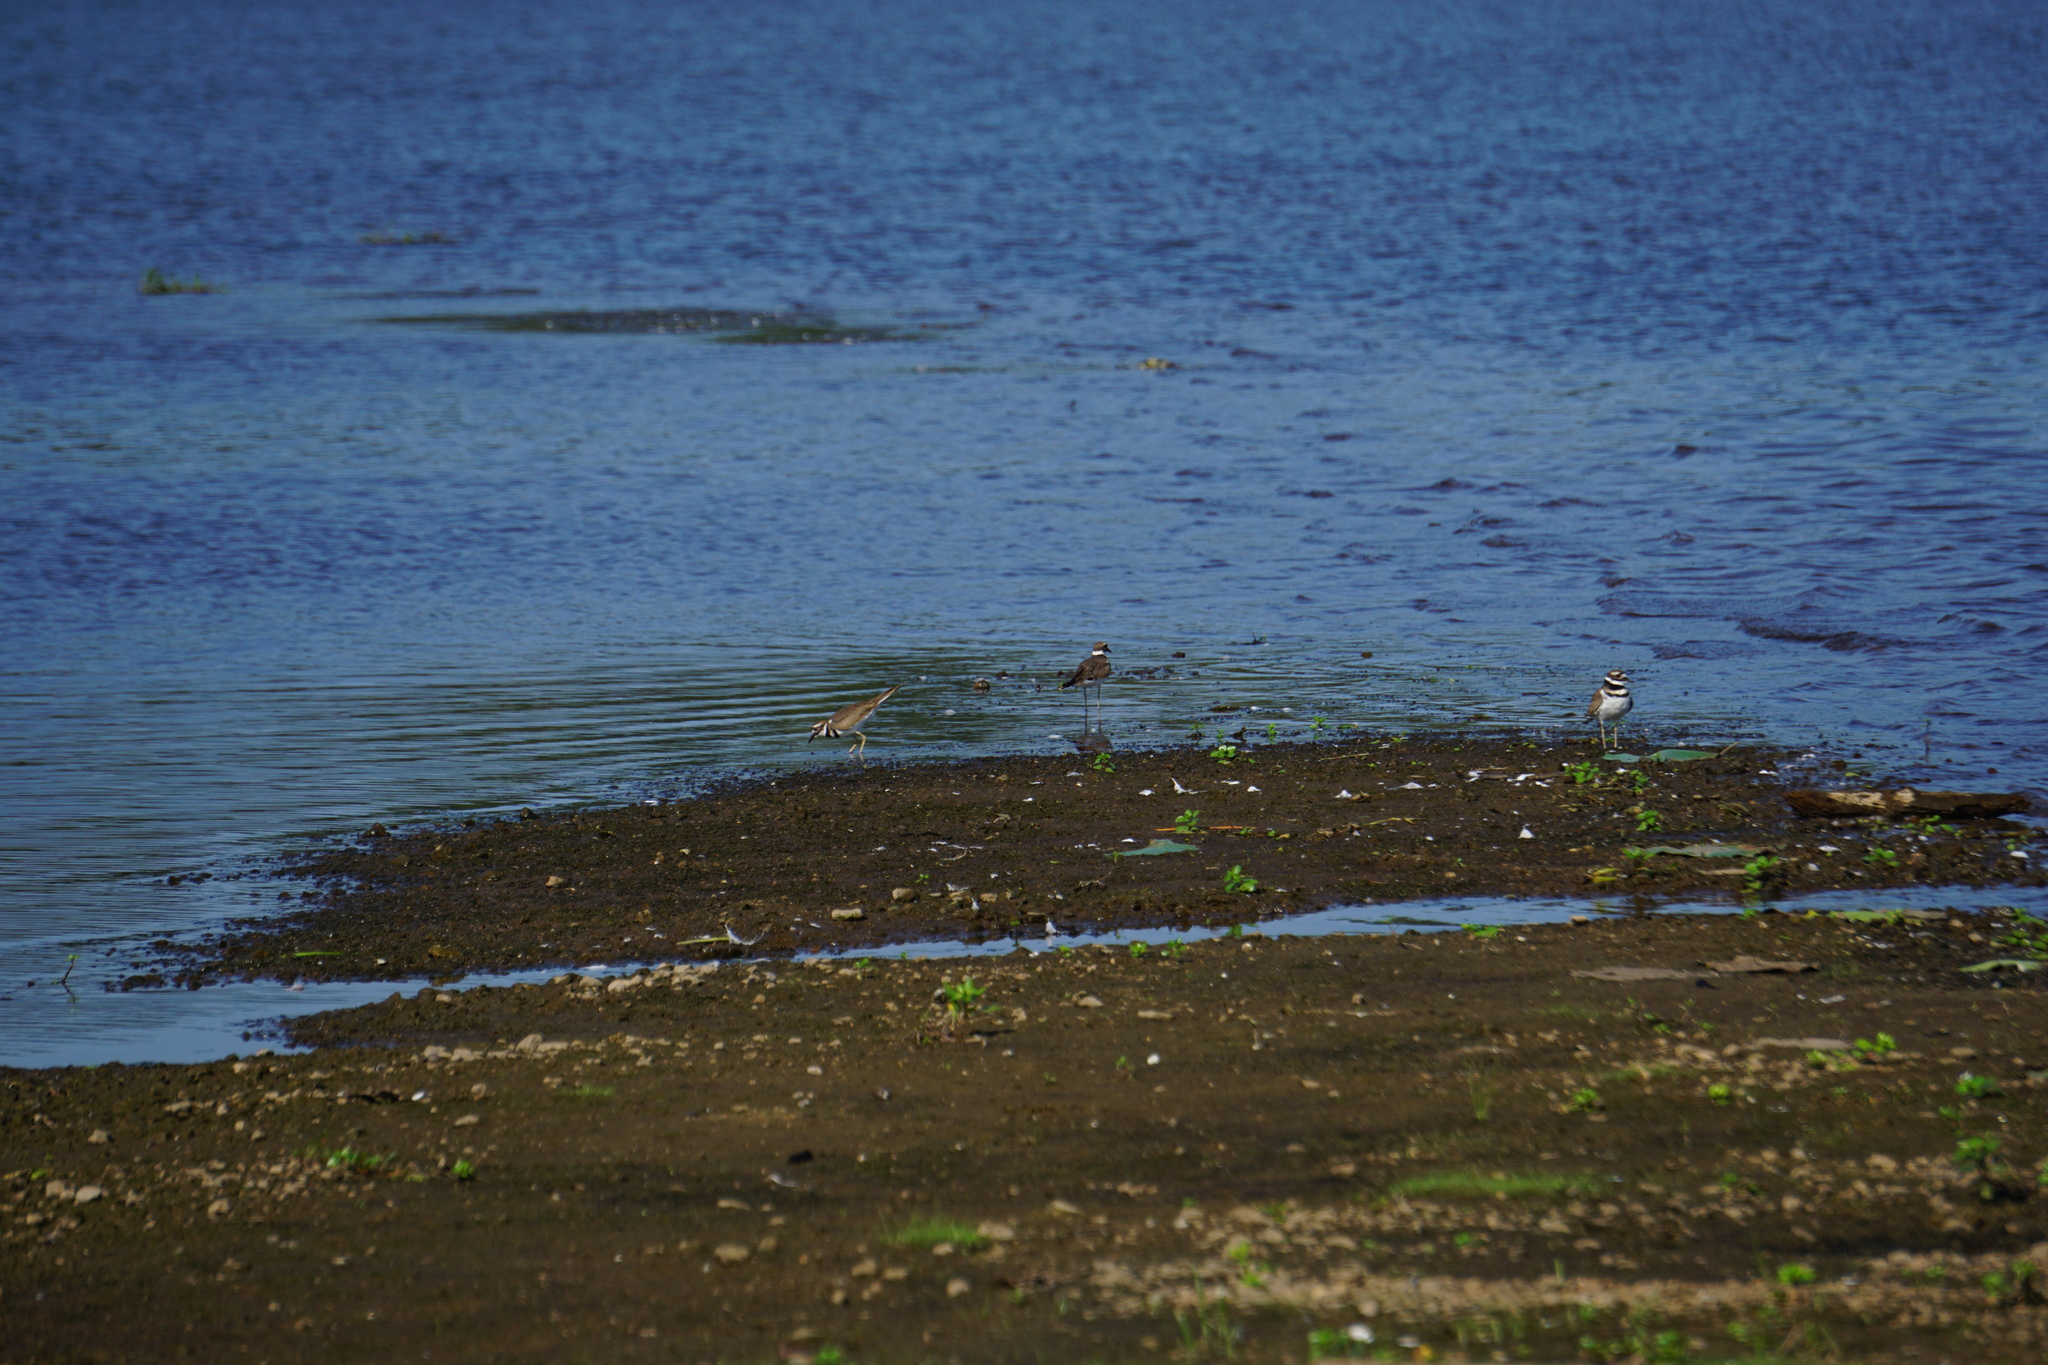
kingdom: Animalia
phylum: Chordata
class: Aves
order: Charadriiformes
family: Charadriidae
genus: Charadrius
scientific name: Charadrius vociferus
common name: Killdeer
